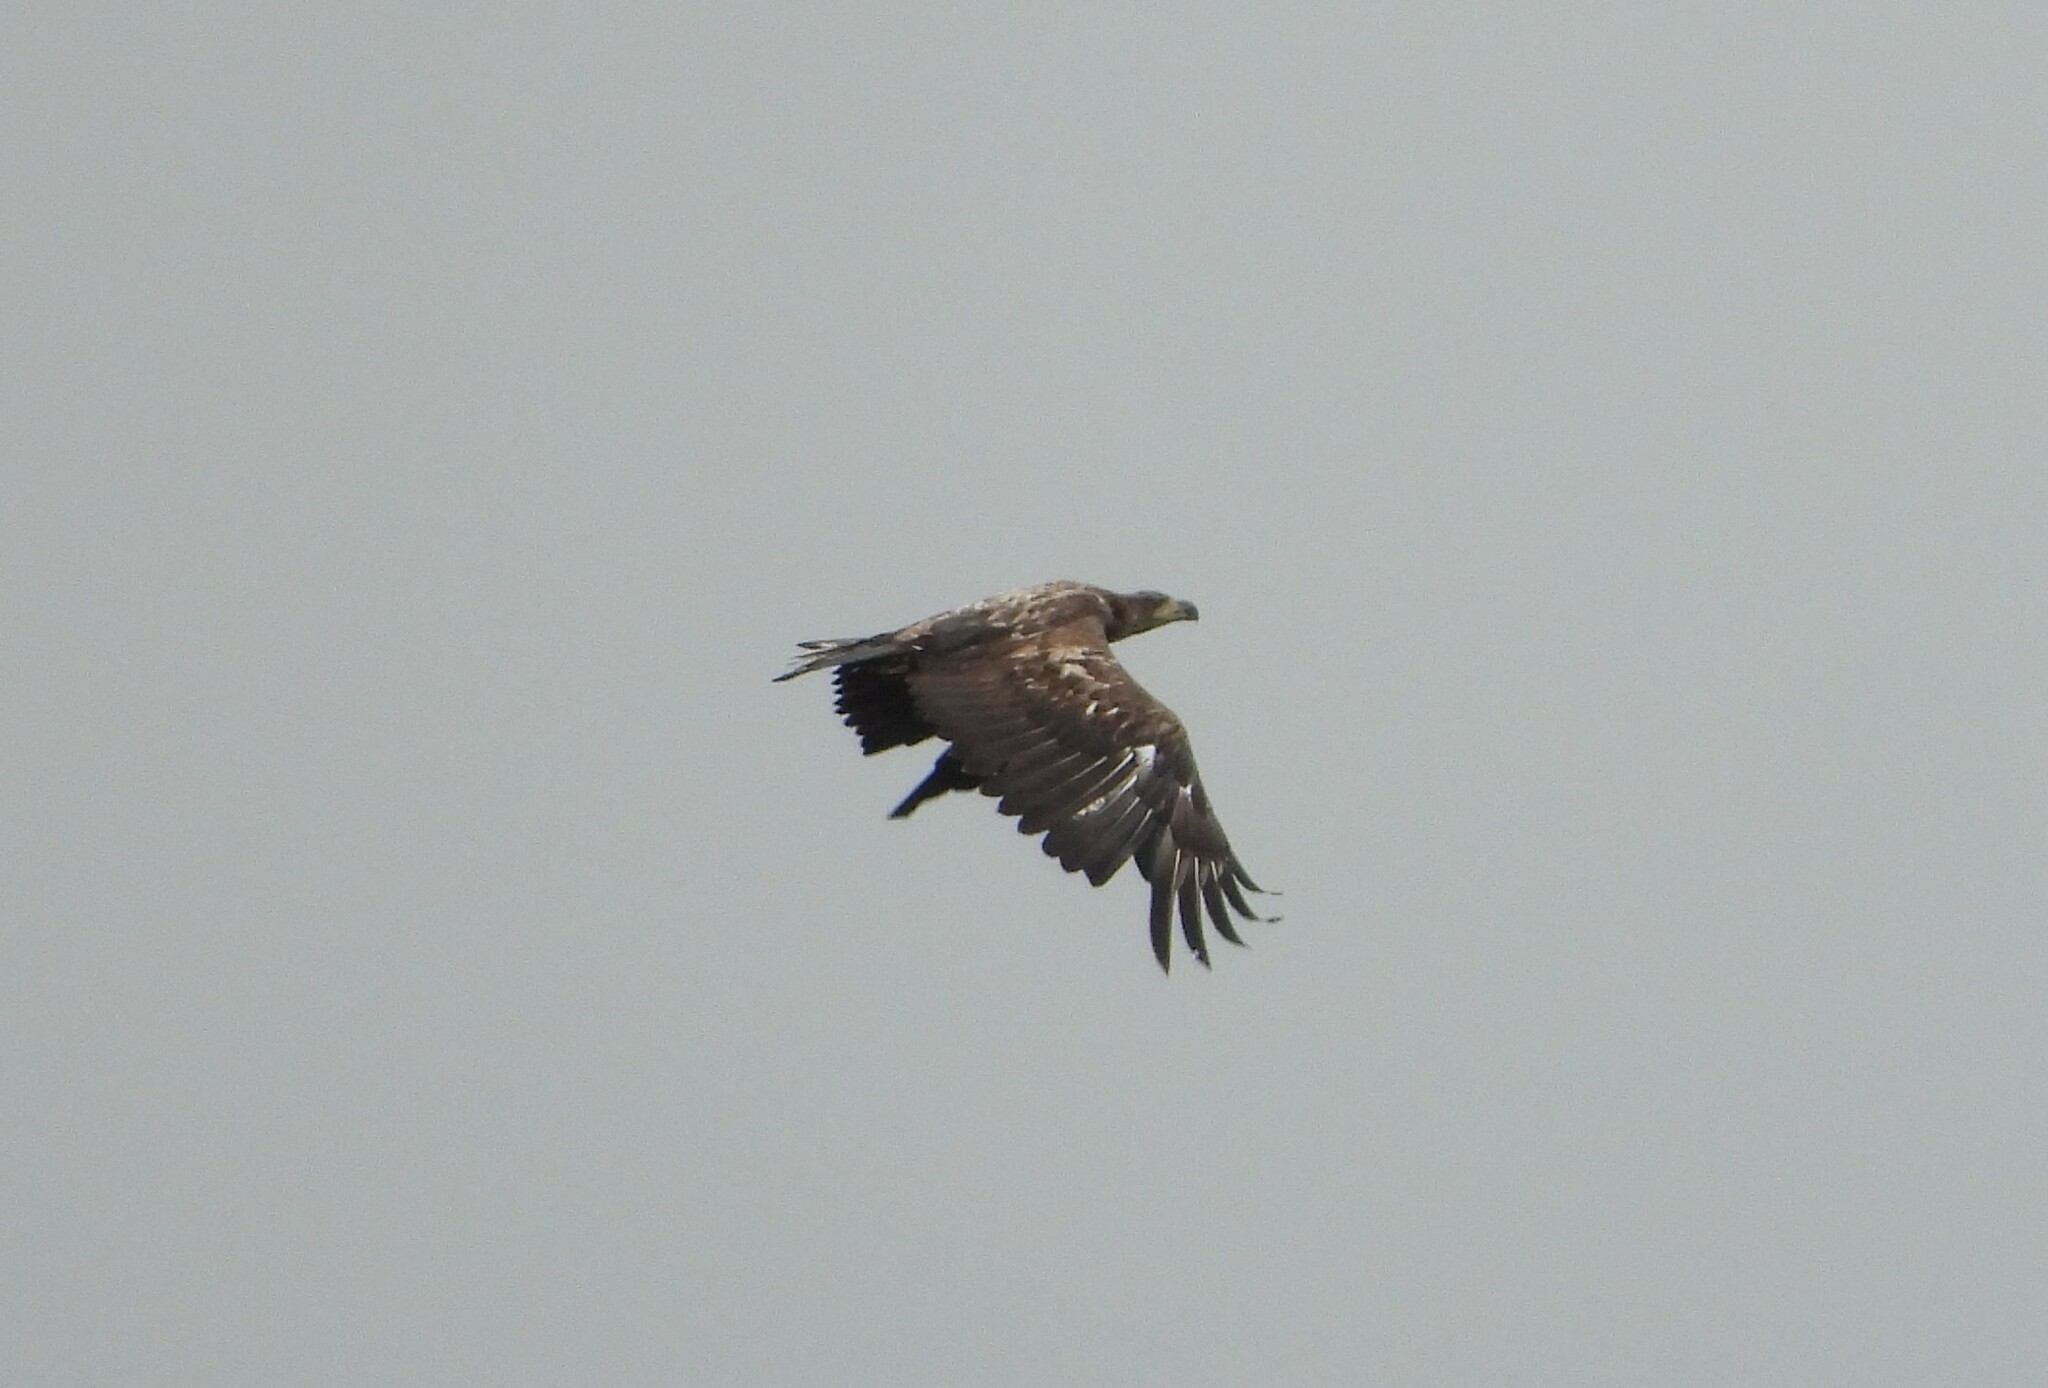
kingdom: Animalia
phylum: Chordata
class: Aves
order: Accipitriformes
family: Accipitridae
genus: Haliaeetus
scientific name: Haliaeetus albicilla
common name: White-tailed eagle
